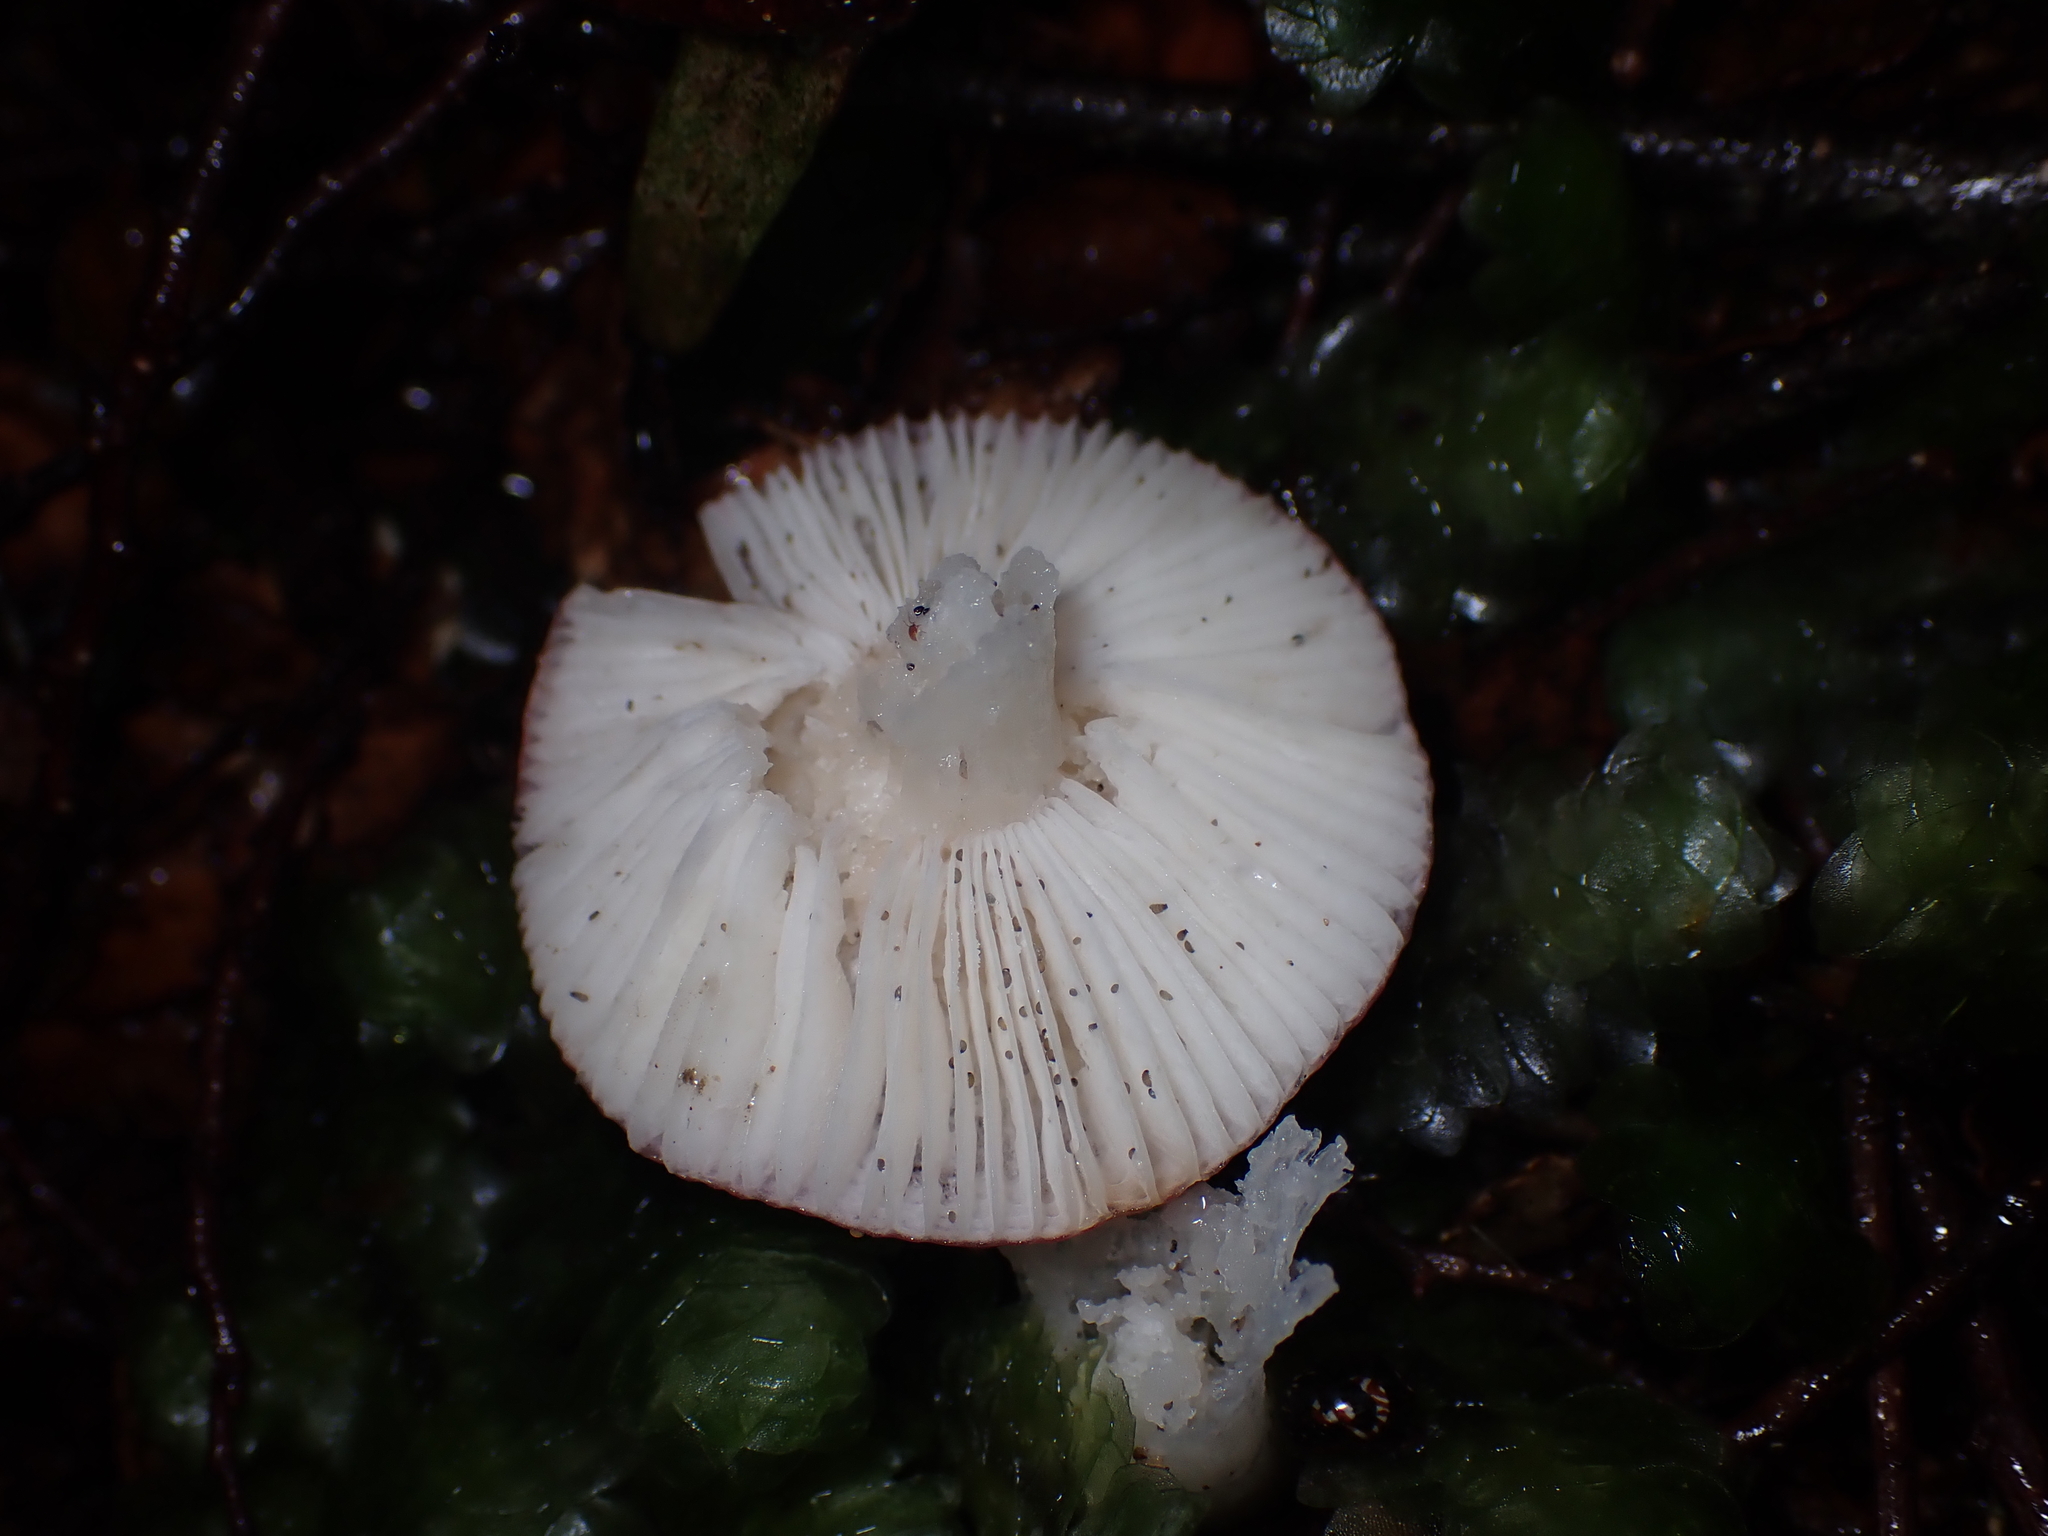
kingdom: Fungi
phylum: Basidiomycota
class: Agaricomycetes
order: Russulales
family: Russulaceae
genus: Russula
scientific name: Russula roseopileata
